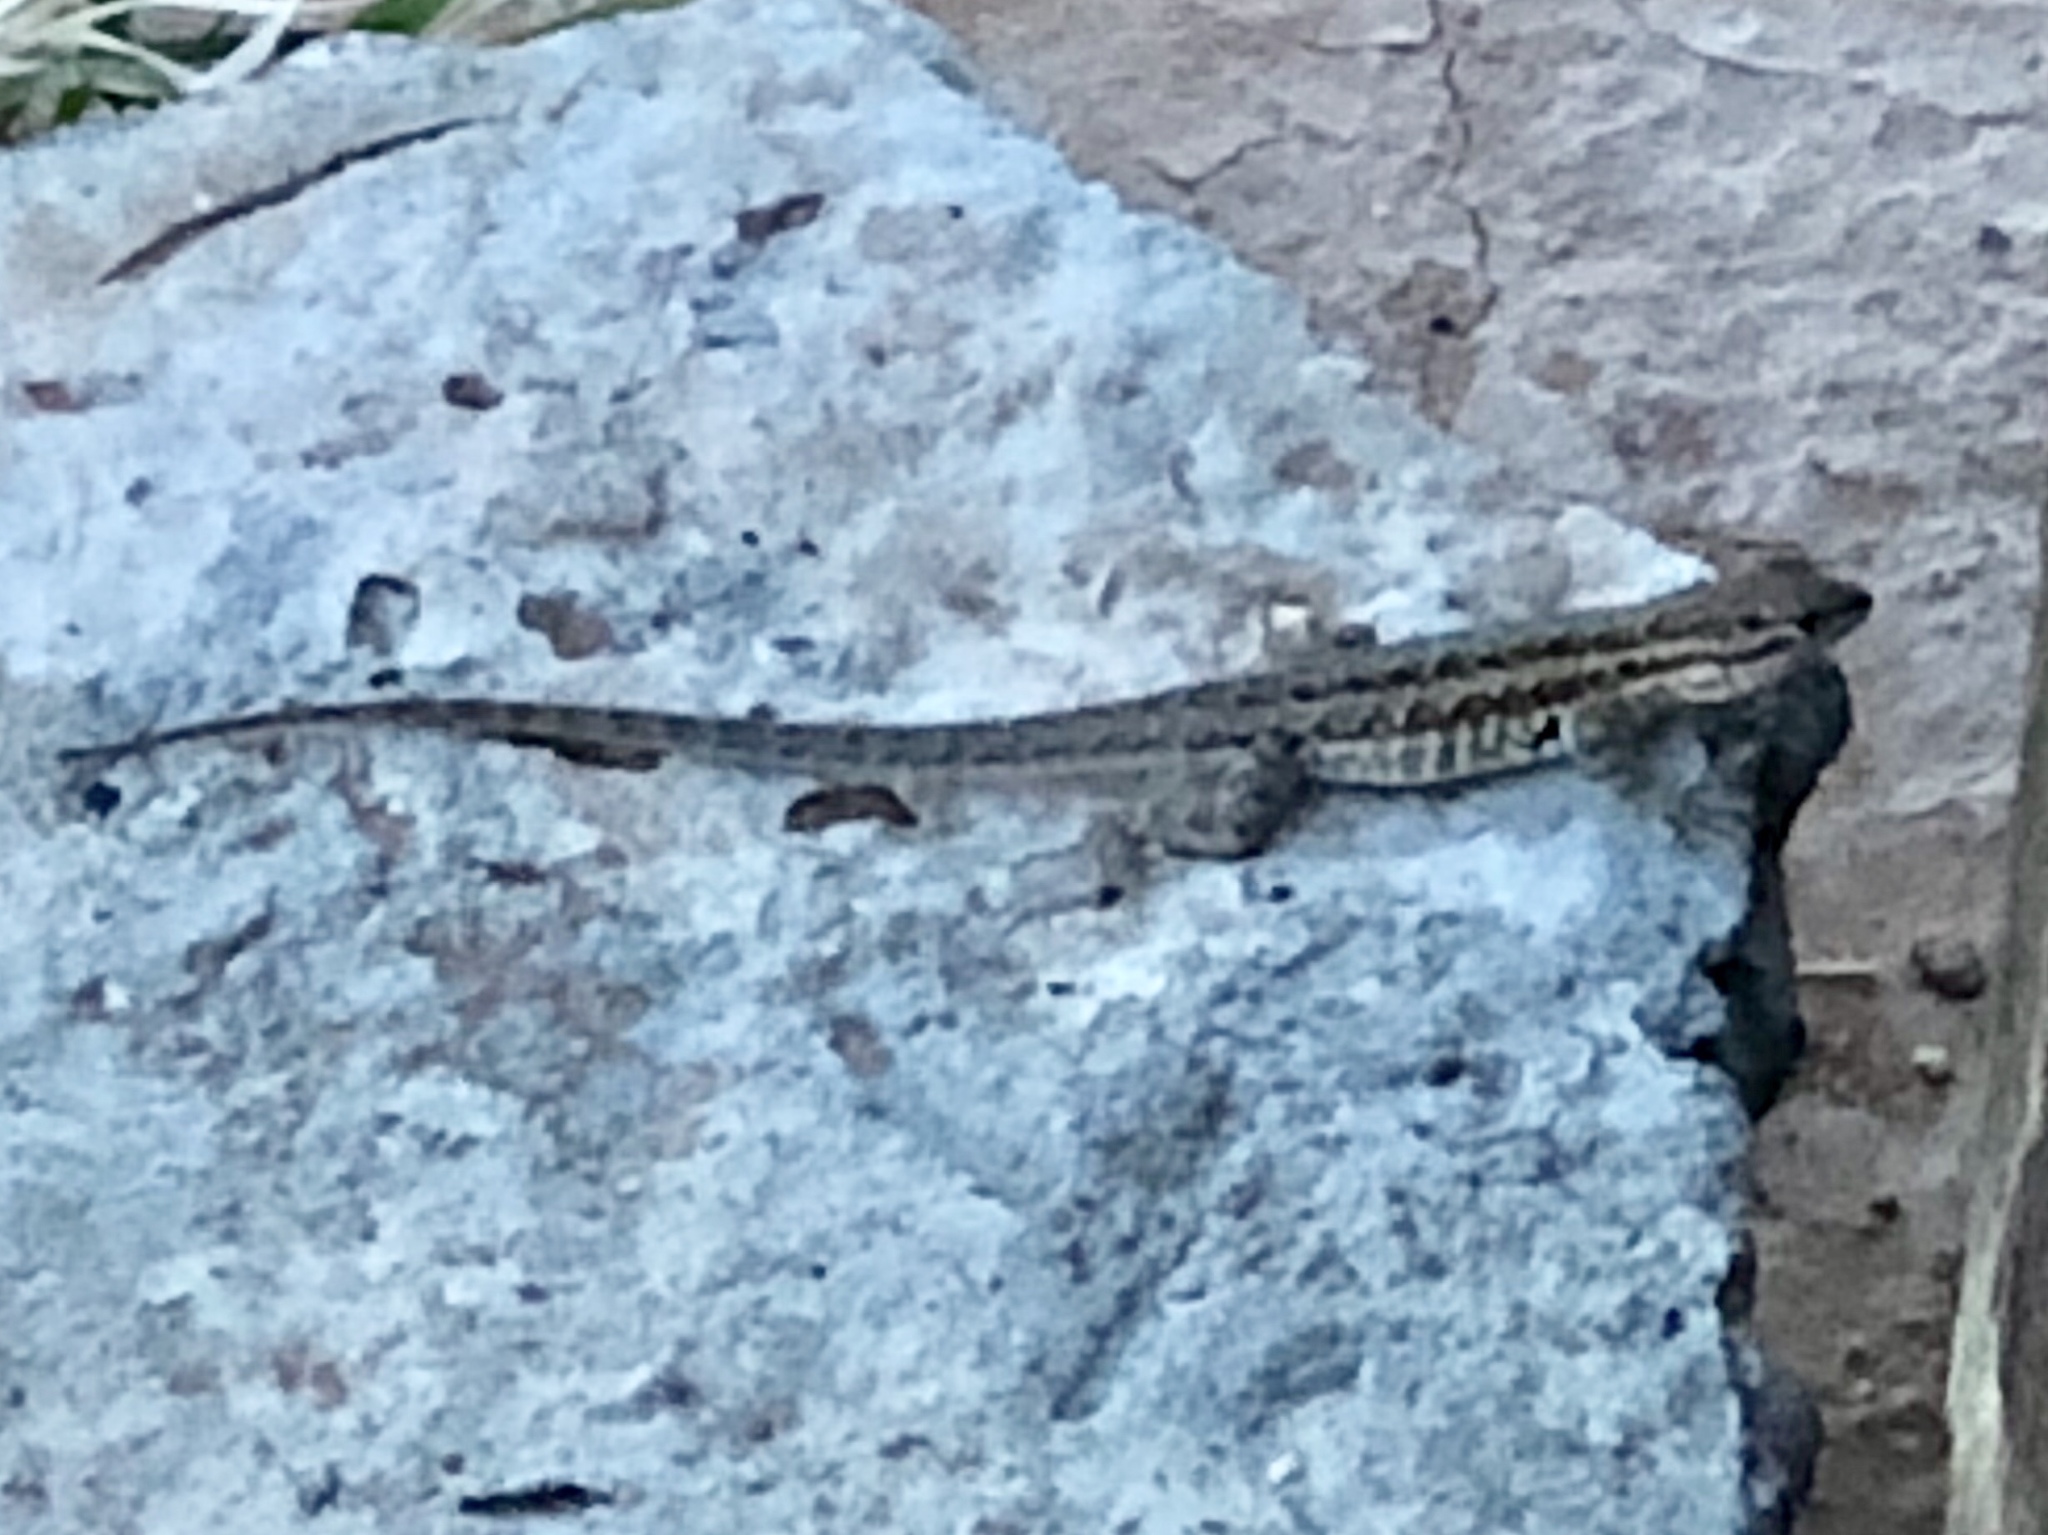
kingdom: Animalia
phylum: Chordata
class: Squamata
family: Phrynosomatidae
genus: Uta
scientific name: Uta stansburiana
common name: Side-blotched lizard
